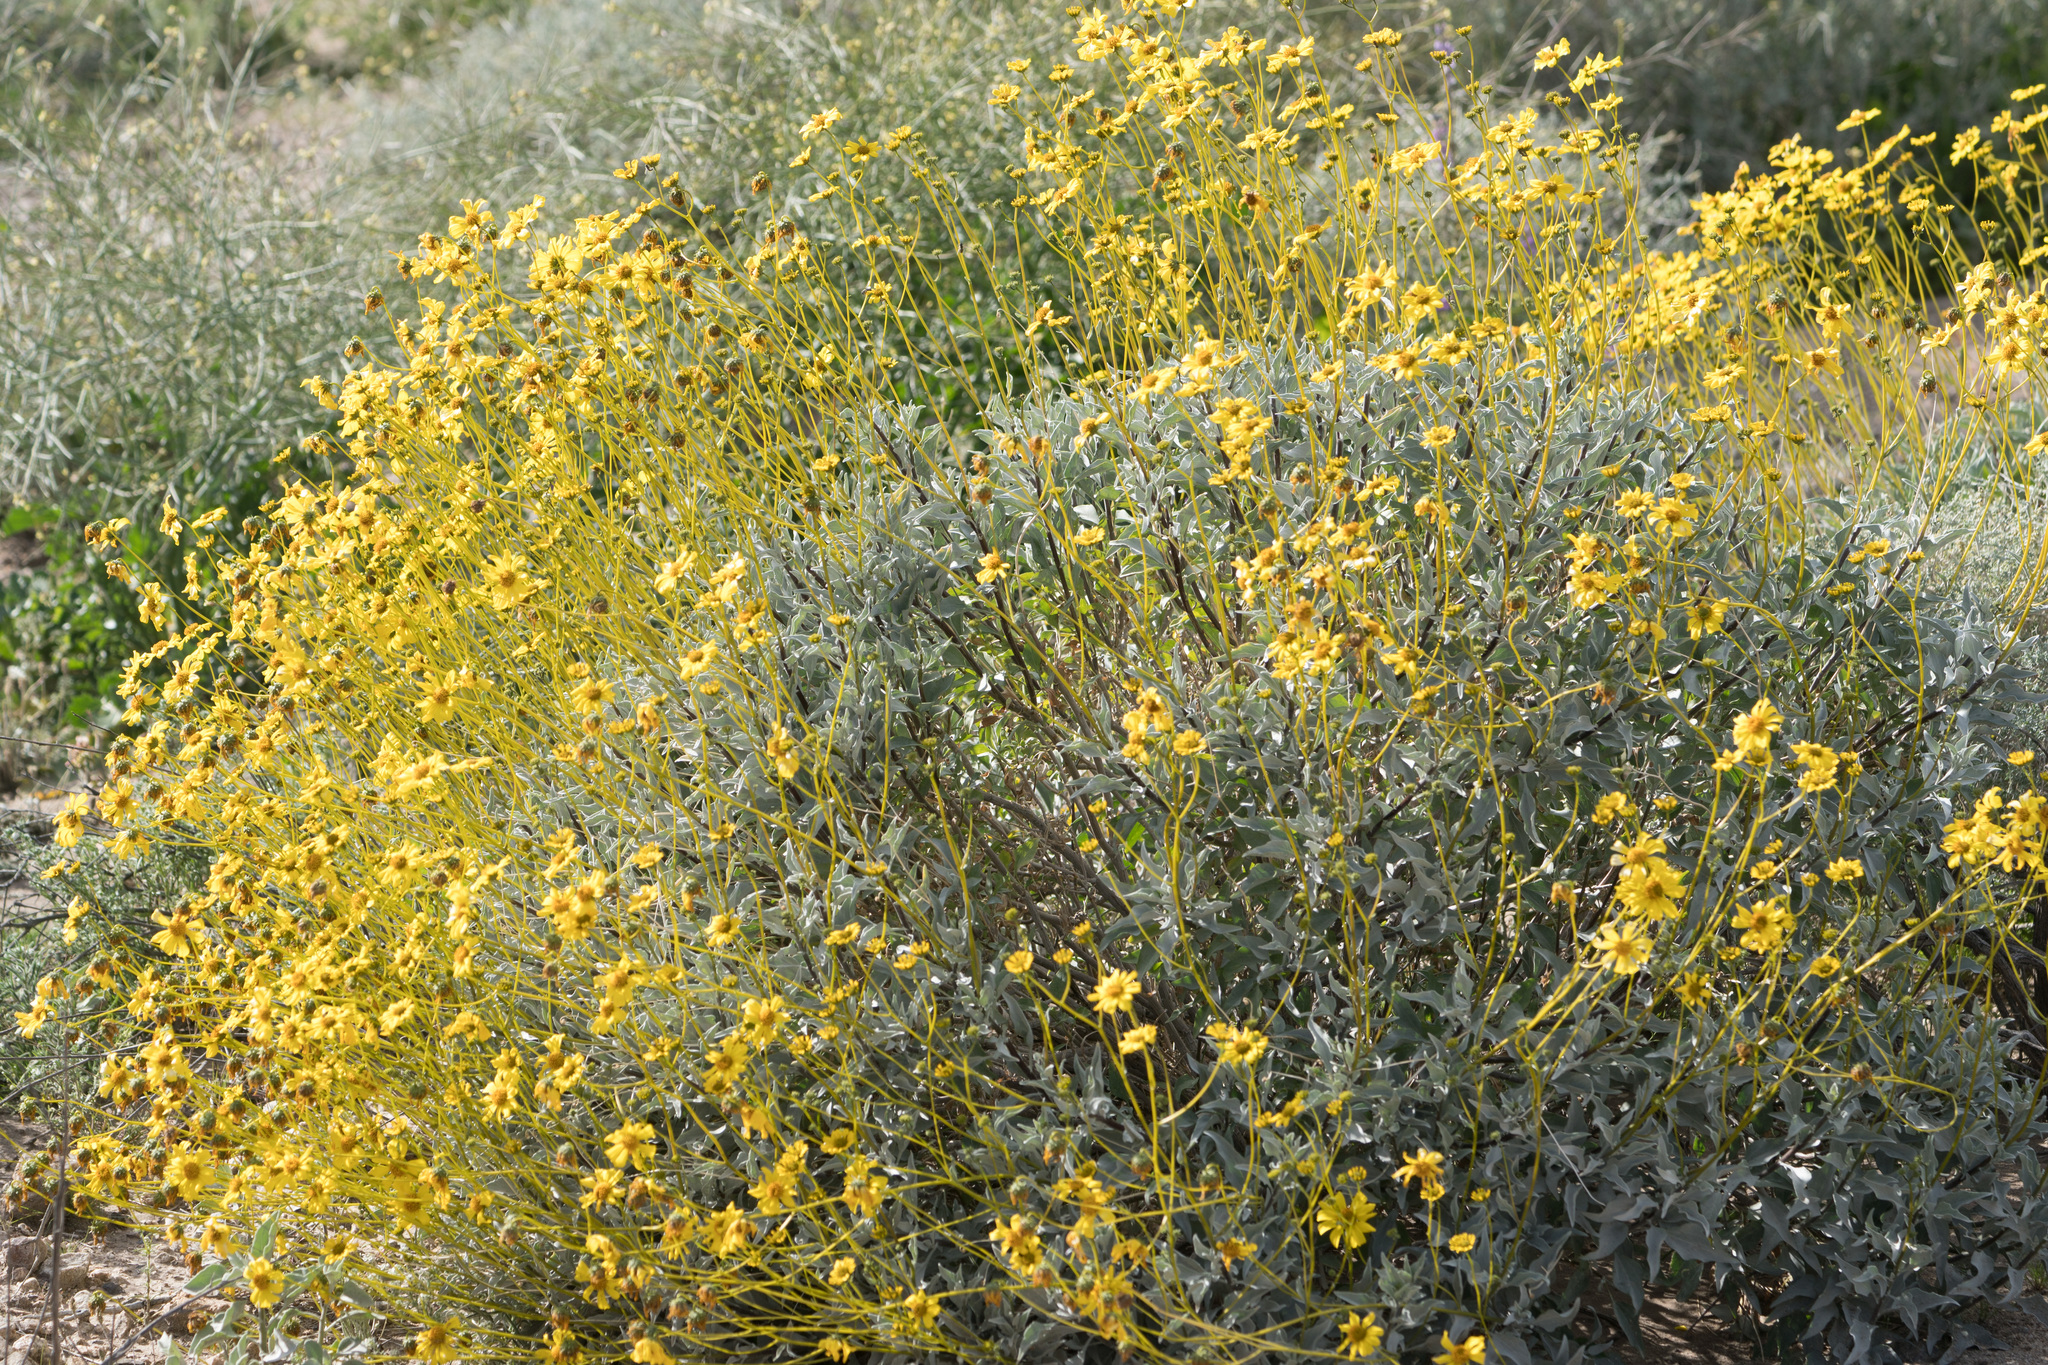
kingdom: Plantae
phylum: Tracheophyta
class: Magnoliopsida
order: Asterales
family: Asteraceae
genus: Encelia
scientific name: Encelia farinosa
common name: Brittlebush
